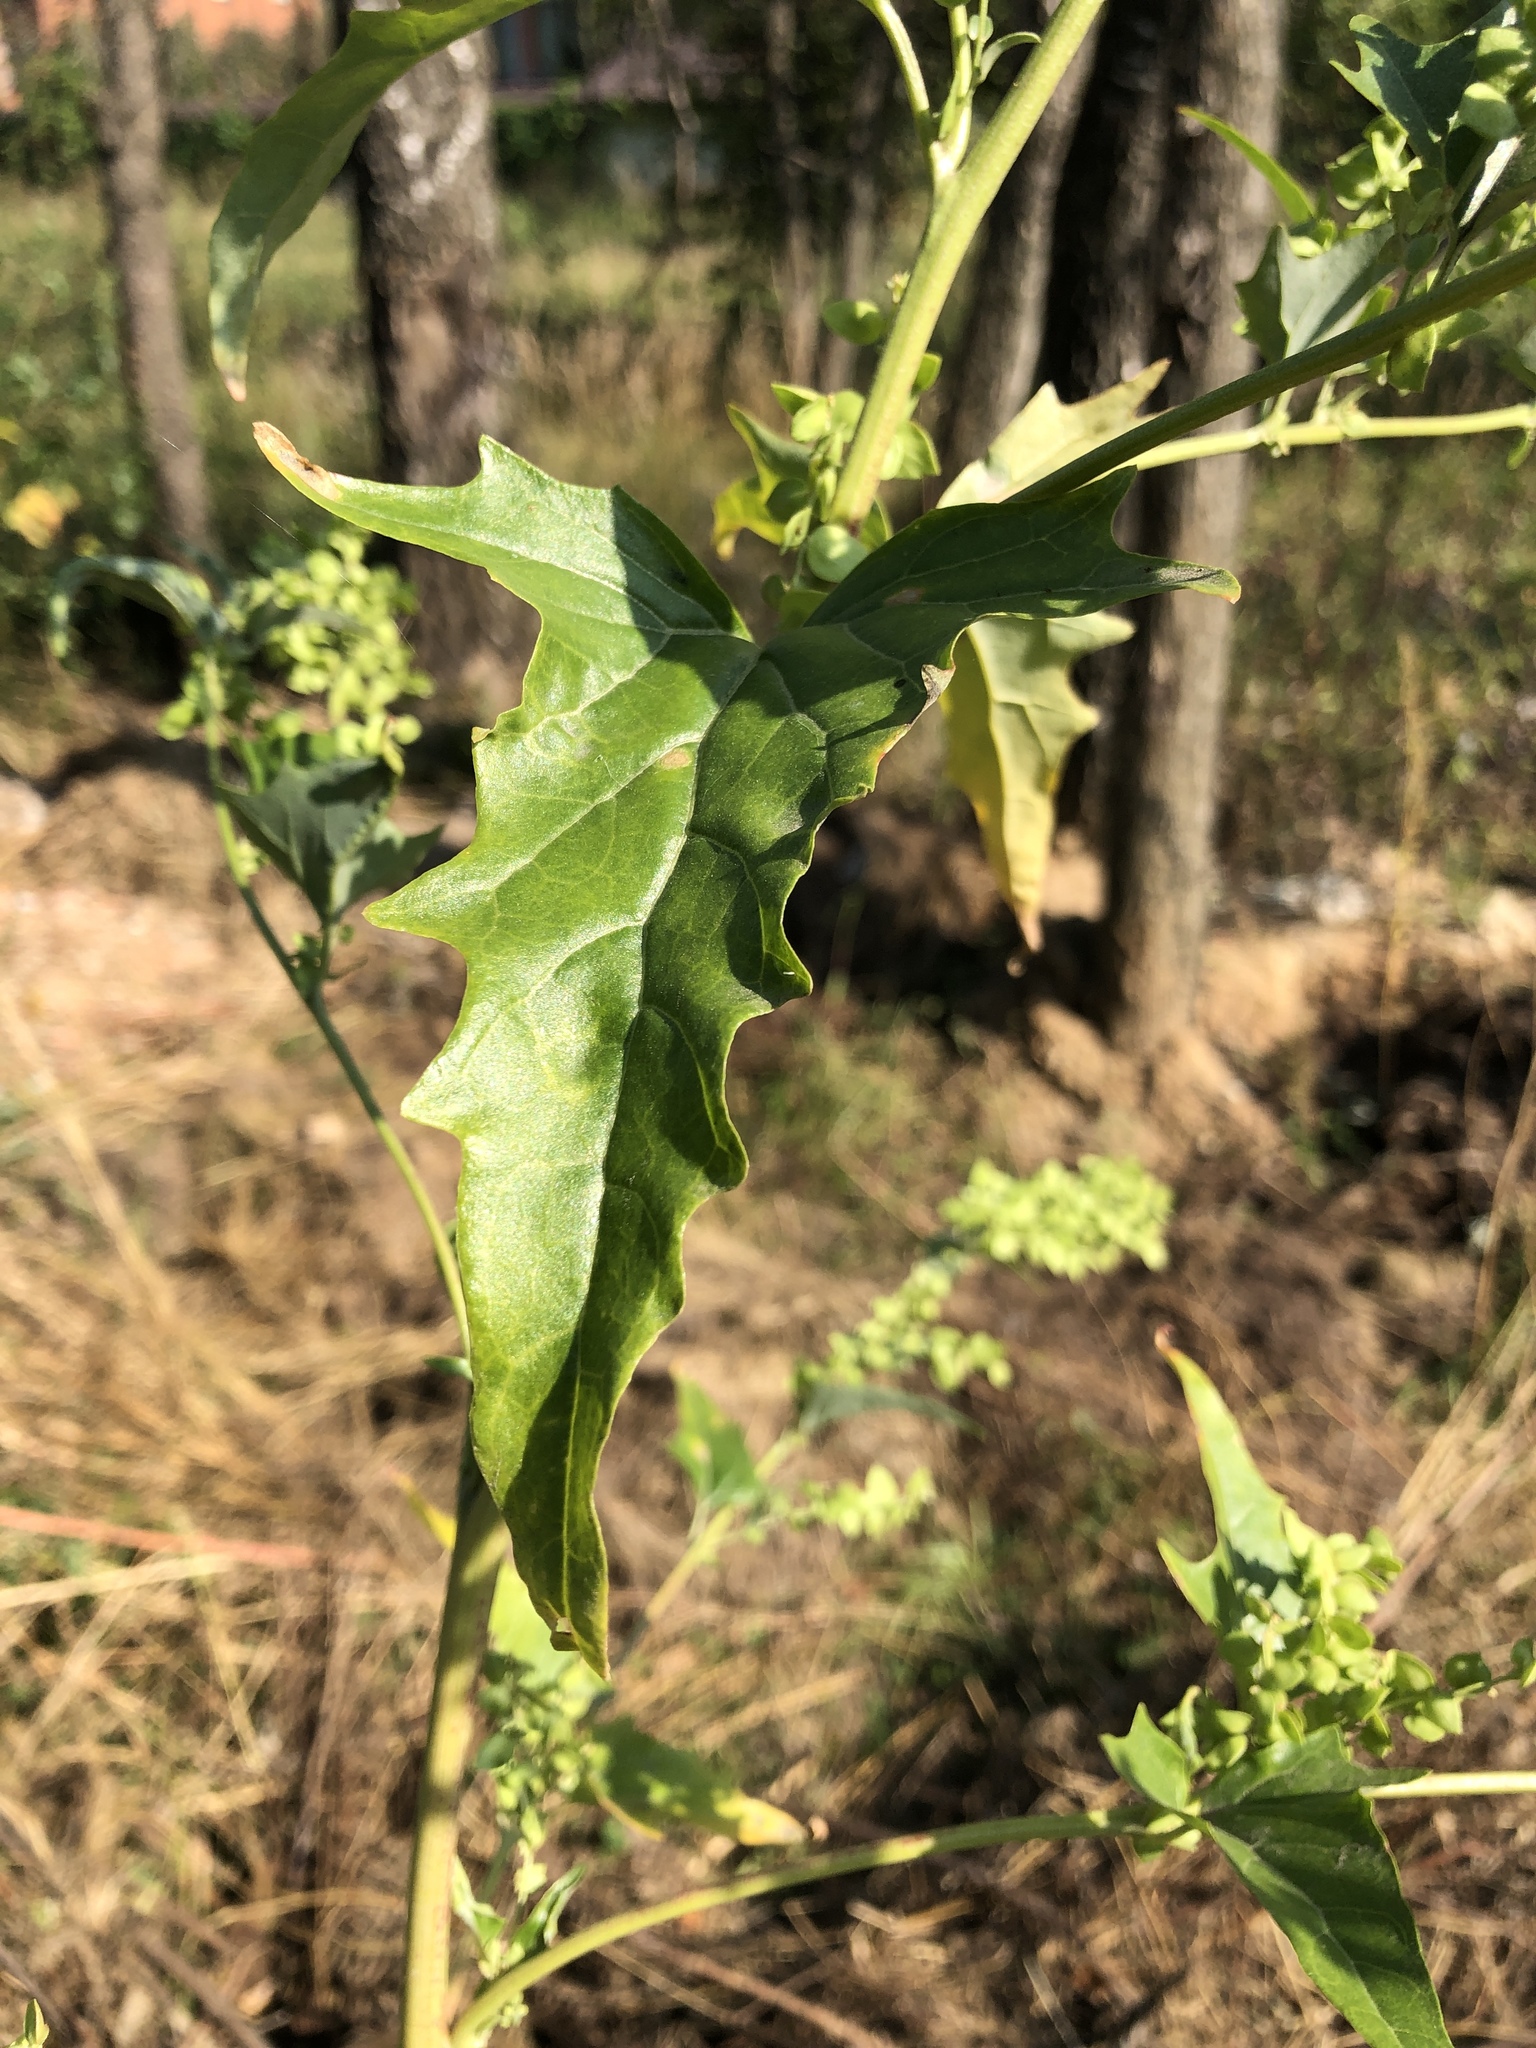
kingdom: Plantae
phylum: Tracheophyta
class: Magnoliopsida
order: Caryophyllales
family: Amaranthaceae
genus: Atriplex
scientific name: Atriplex sagittata
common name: Purple orache
